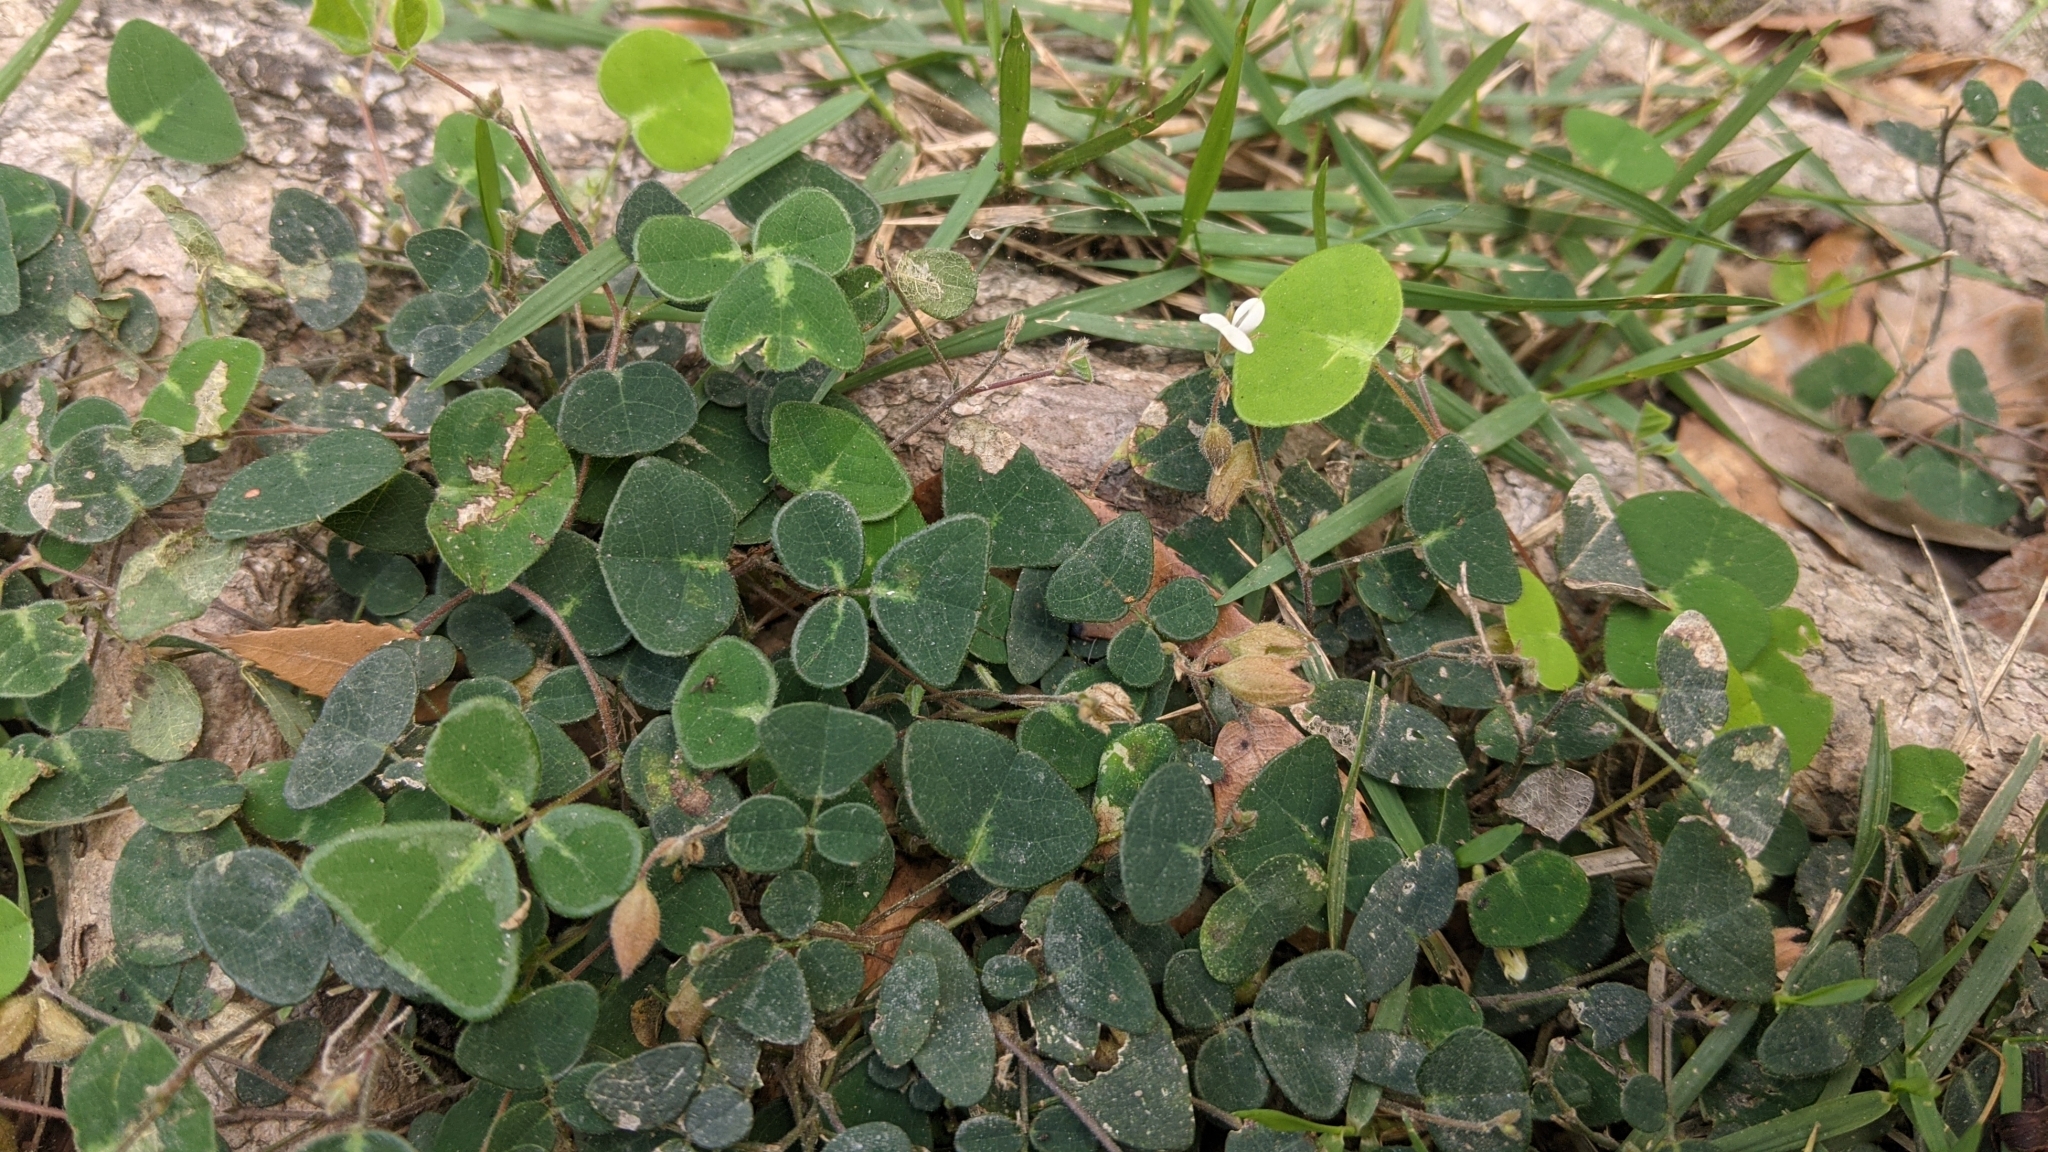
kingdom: Plantae
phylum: Tracheophyta
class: Magnoliopsida
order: Fabales
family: Fabaceae
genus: Christia
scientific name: Christia obcordata
